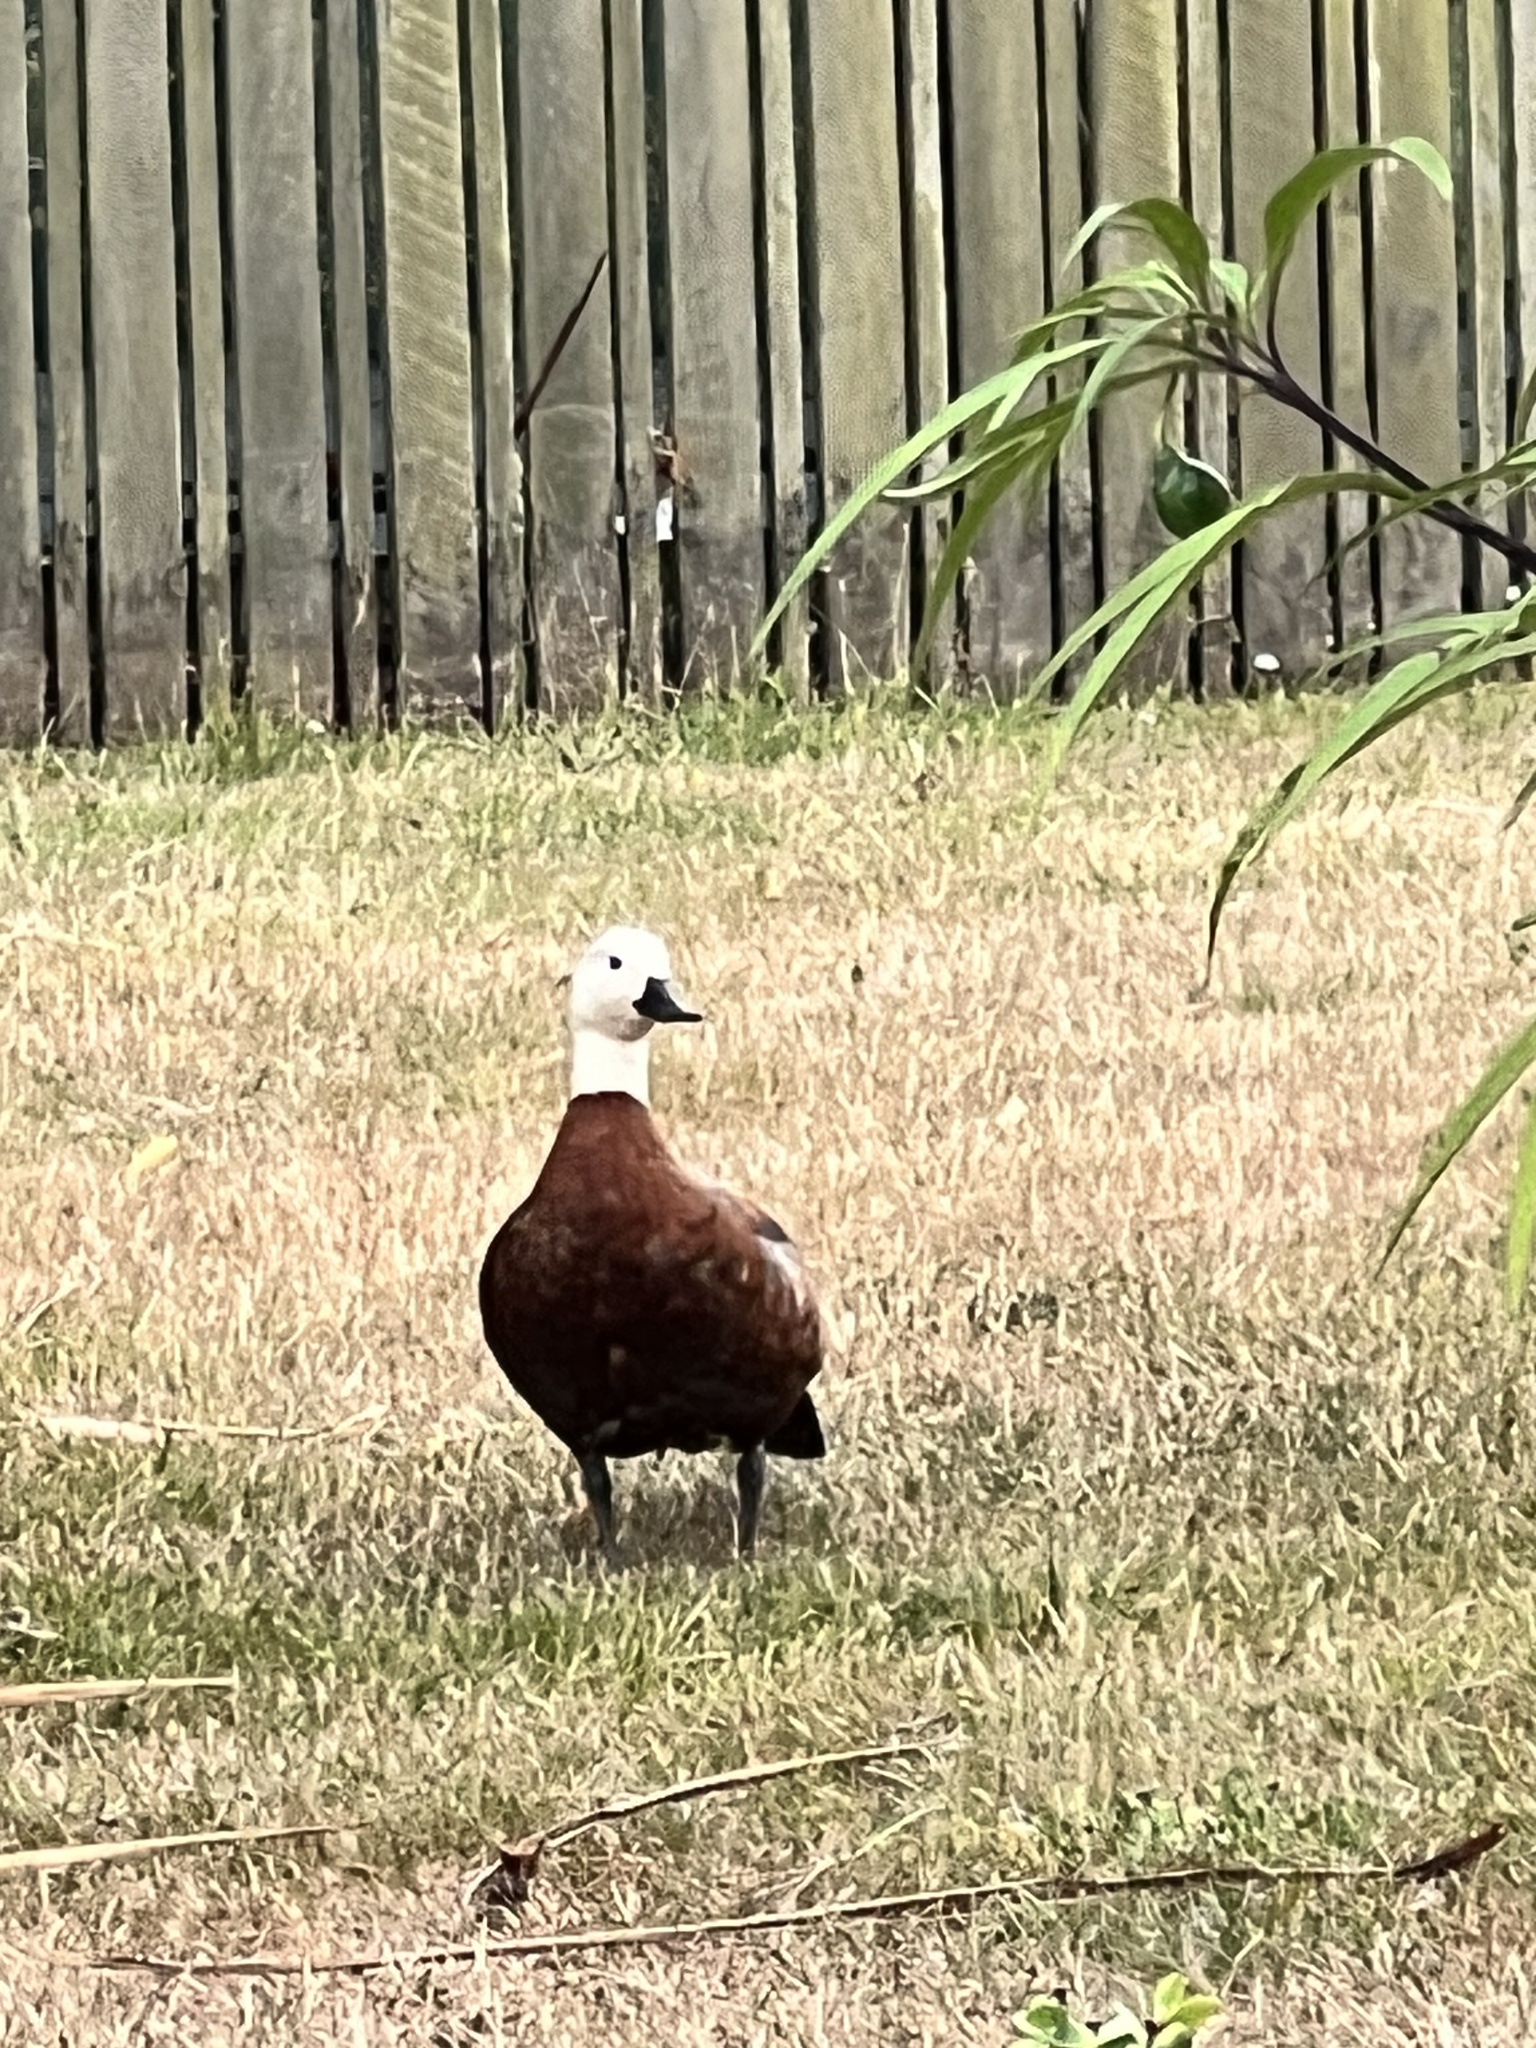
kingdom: Animalia
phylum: Chordata
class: Aves
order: Anseriformes
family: Anatidae
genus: Tadorna
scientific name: Tadorna variegata
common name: Paradise shelduck
